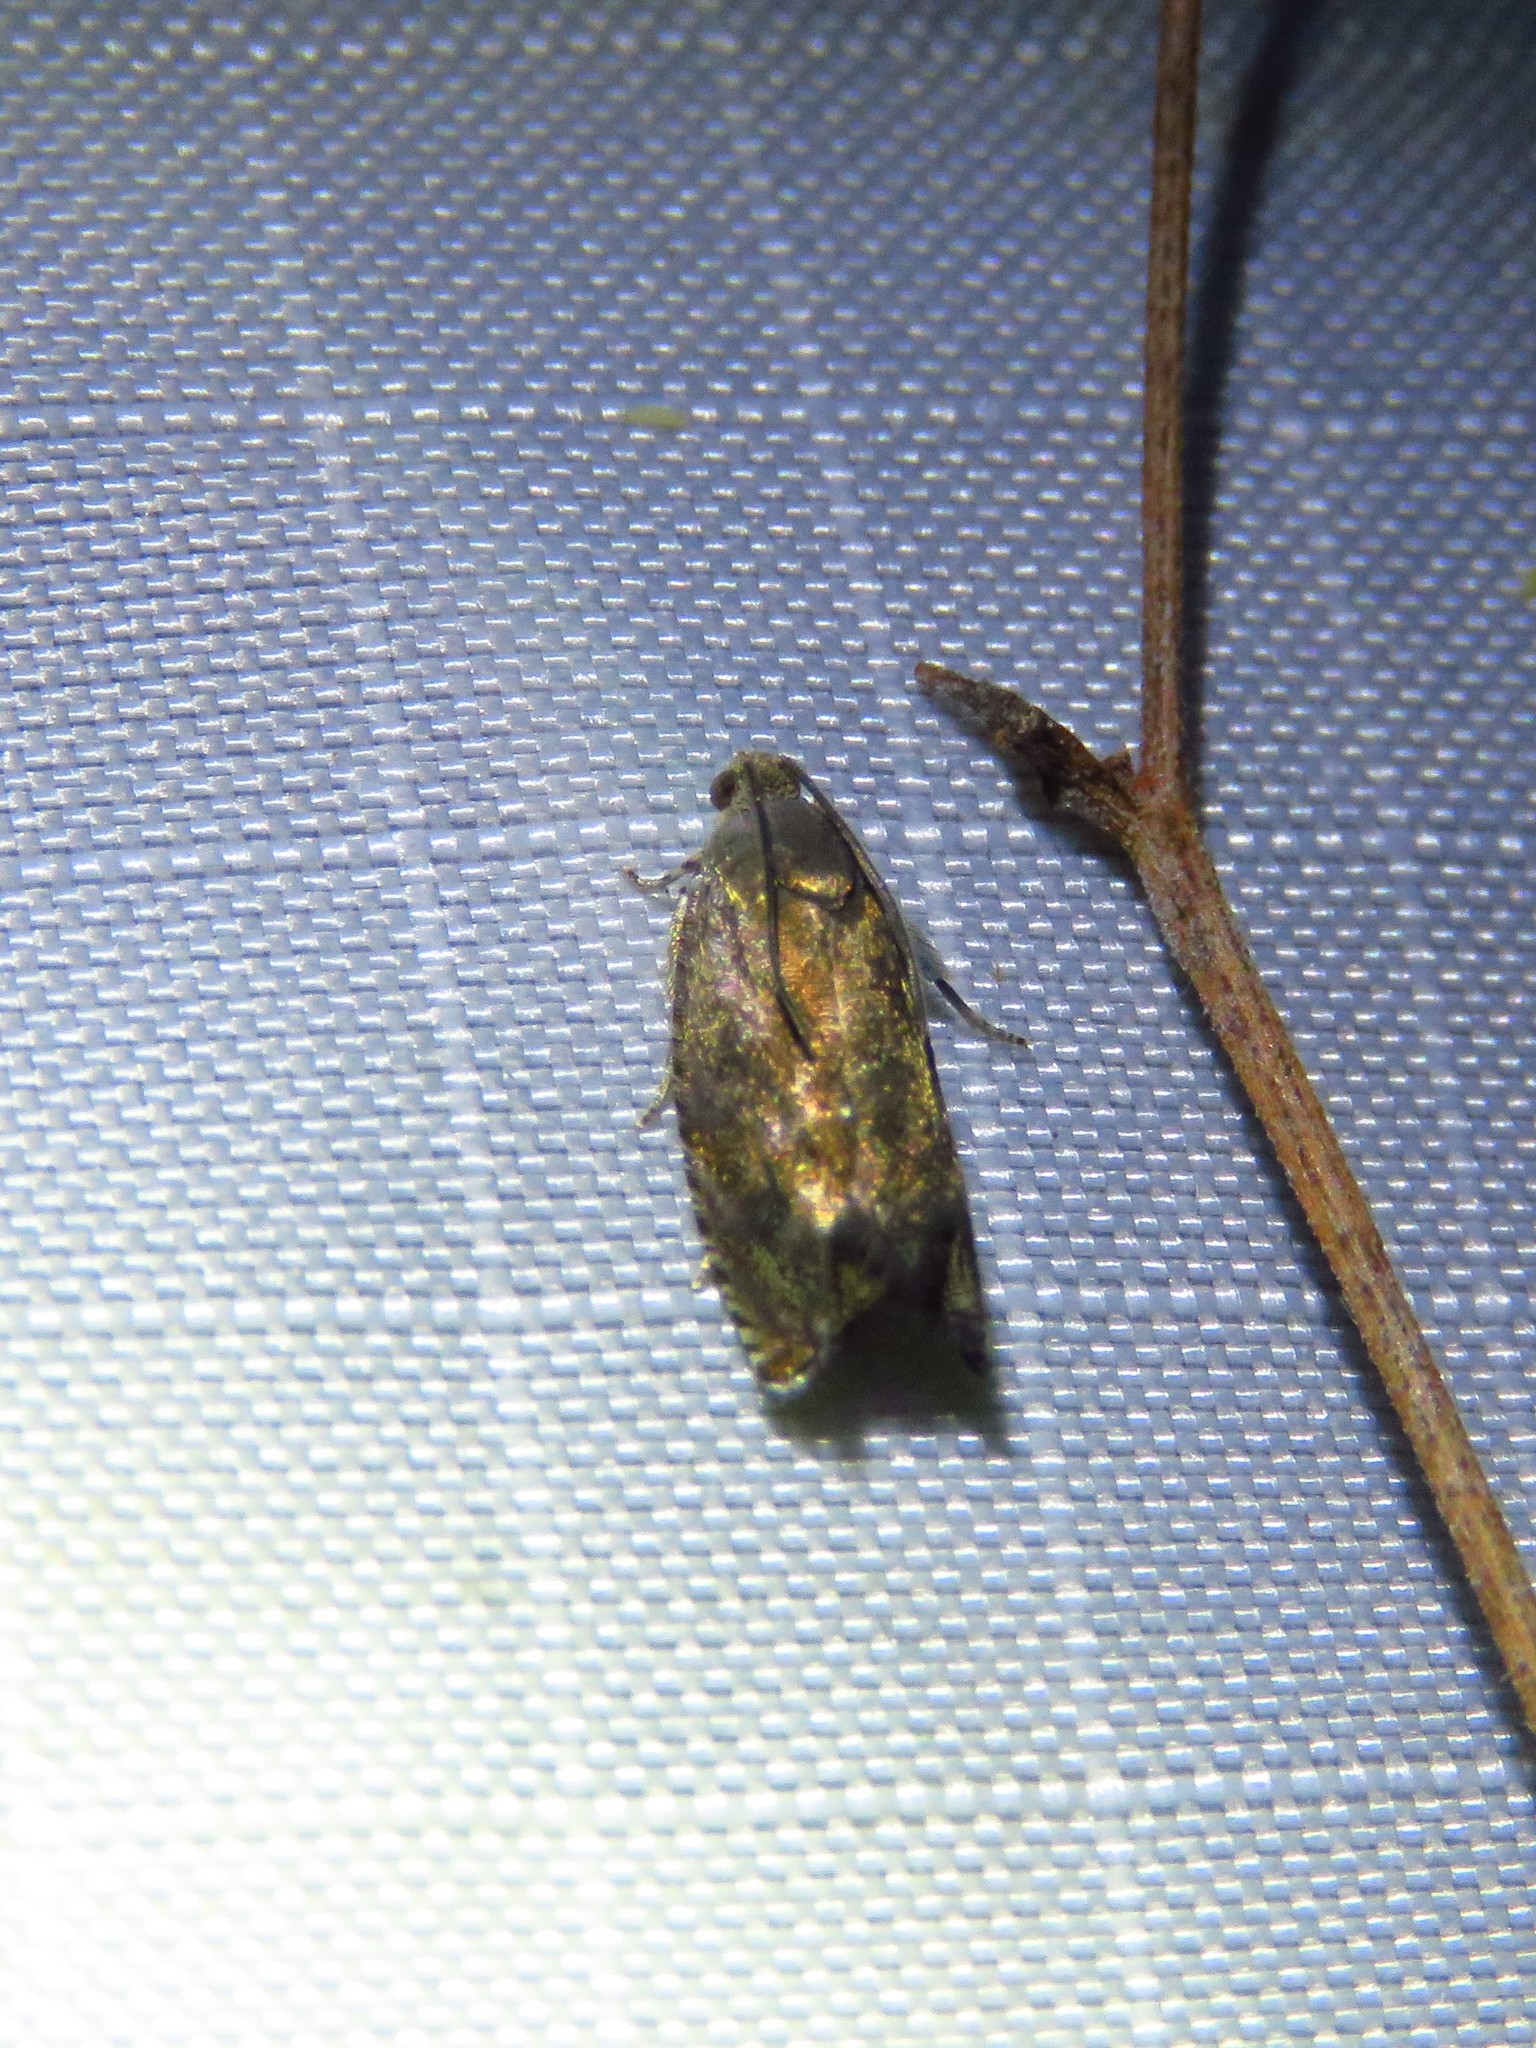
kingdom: Animalia
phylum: Arthropoda
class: Insecta
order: Lepidoptera
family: Tortricidae
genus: Cydia
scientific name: Cydia caryana
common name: Hickory shuckworm moth
